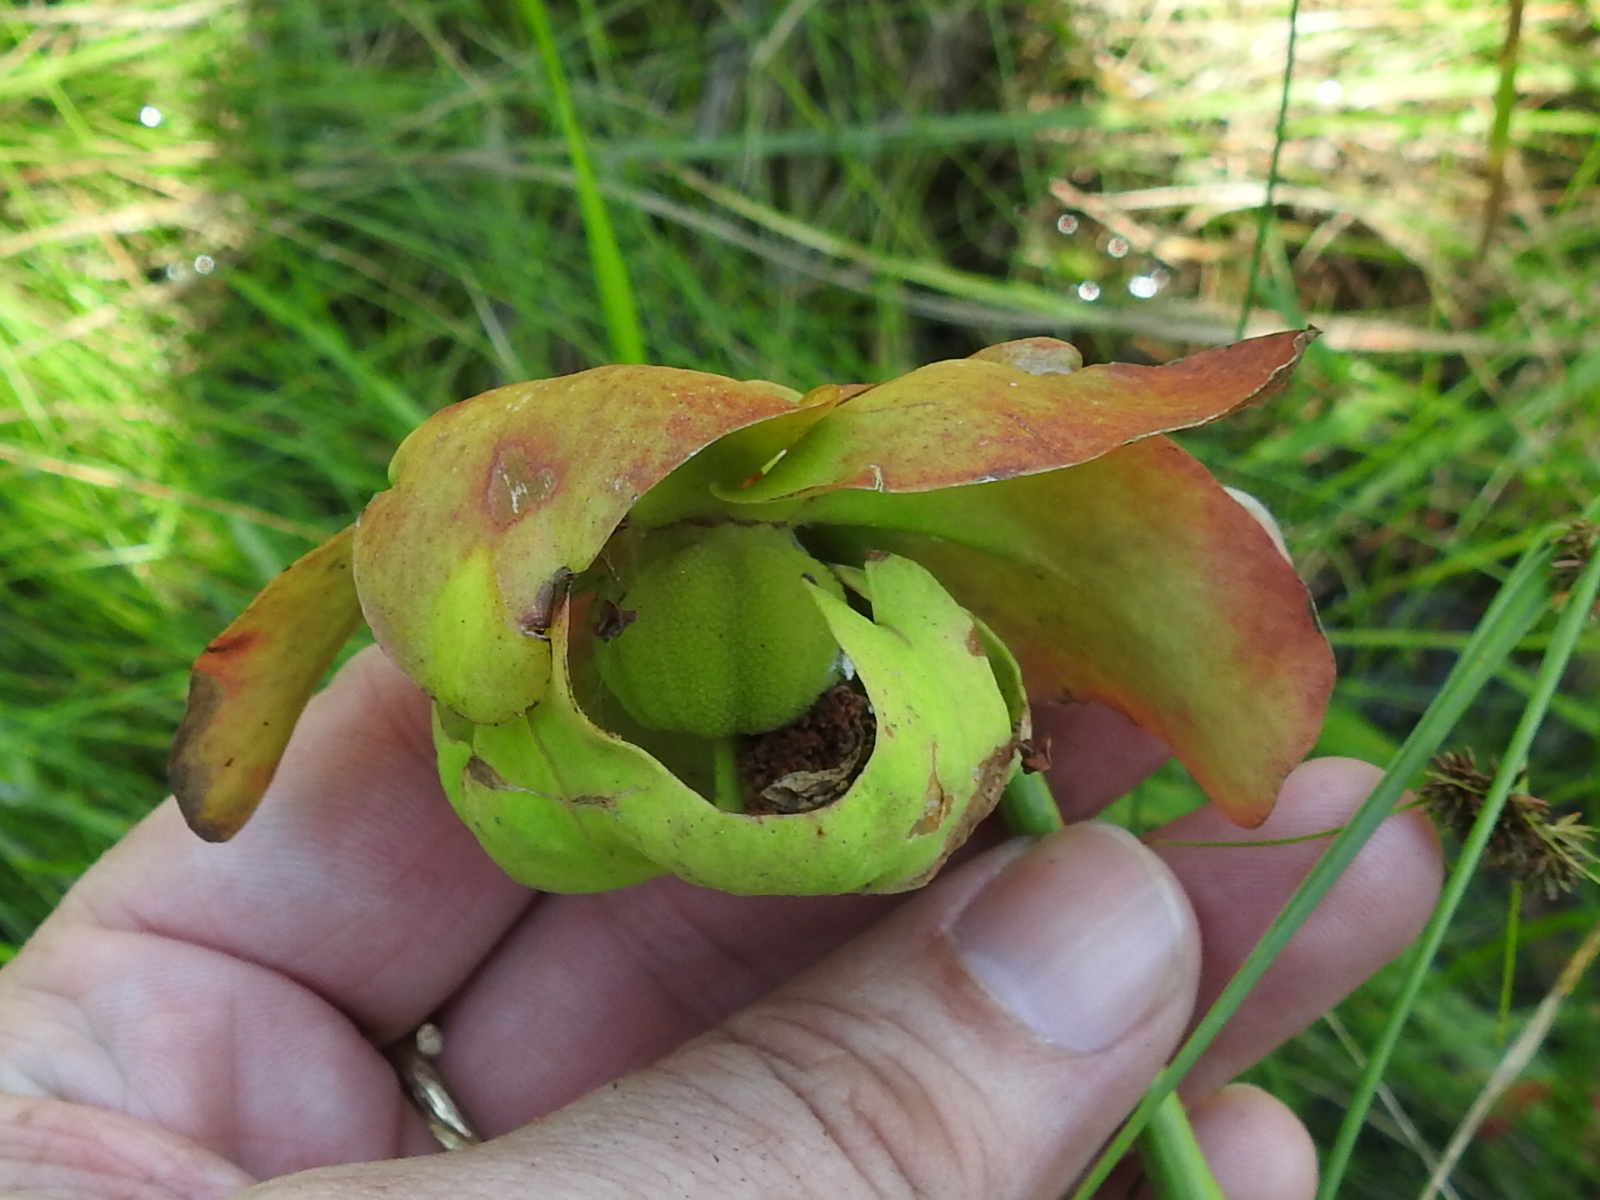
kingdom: Plantae
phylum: Tracheophyta
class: Magnoliopsida
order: Ericales
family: Sarraceniaceae
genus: Sarracenia
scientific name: Sarracenia alata
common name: Yellow trumpets
